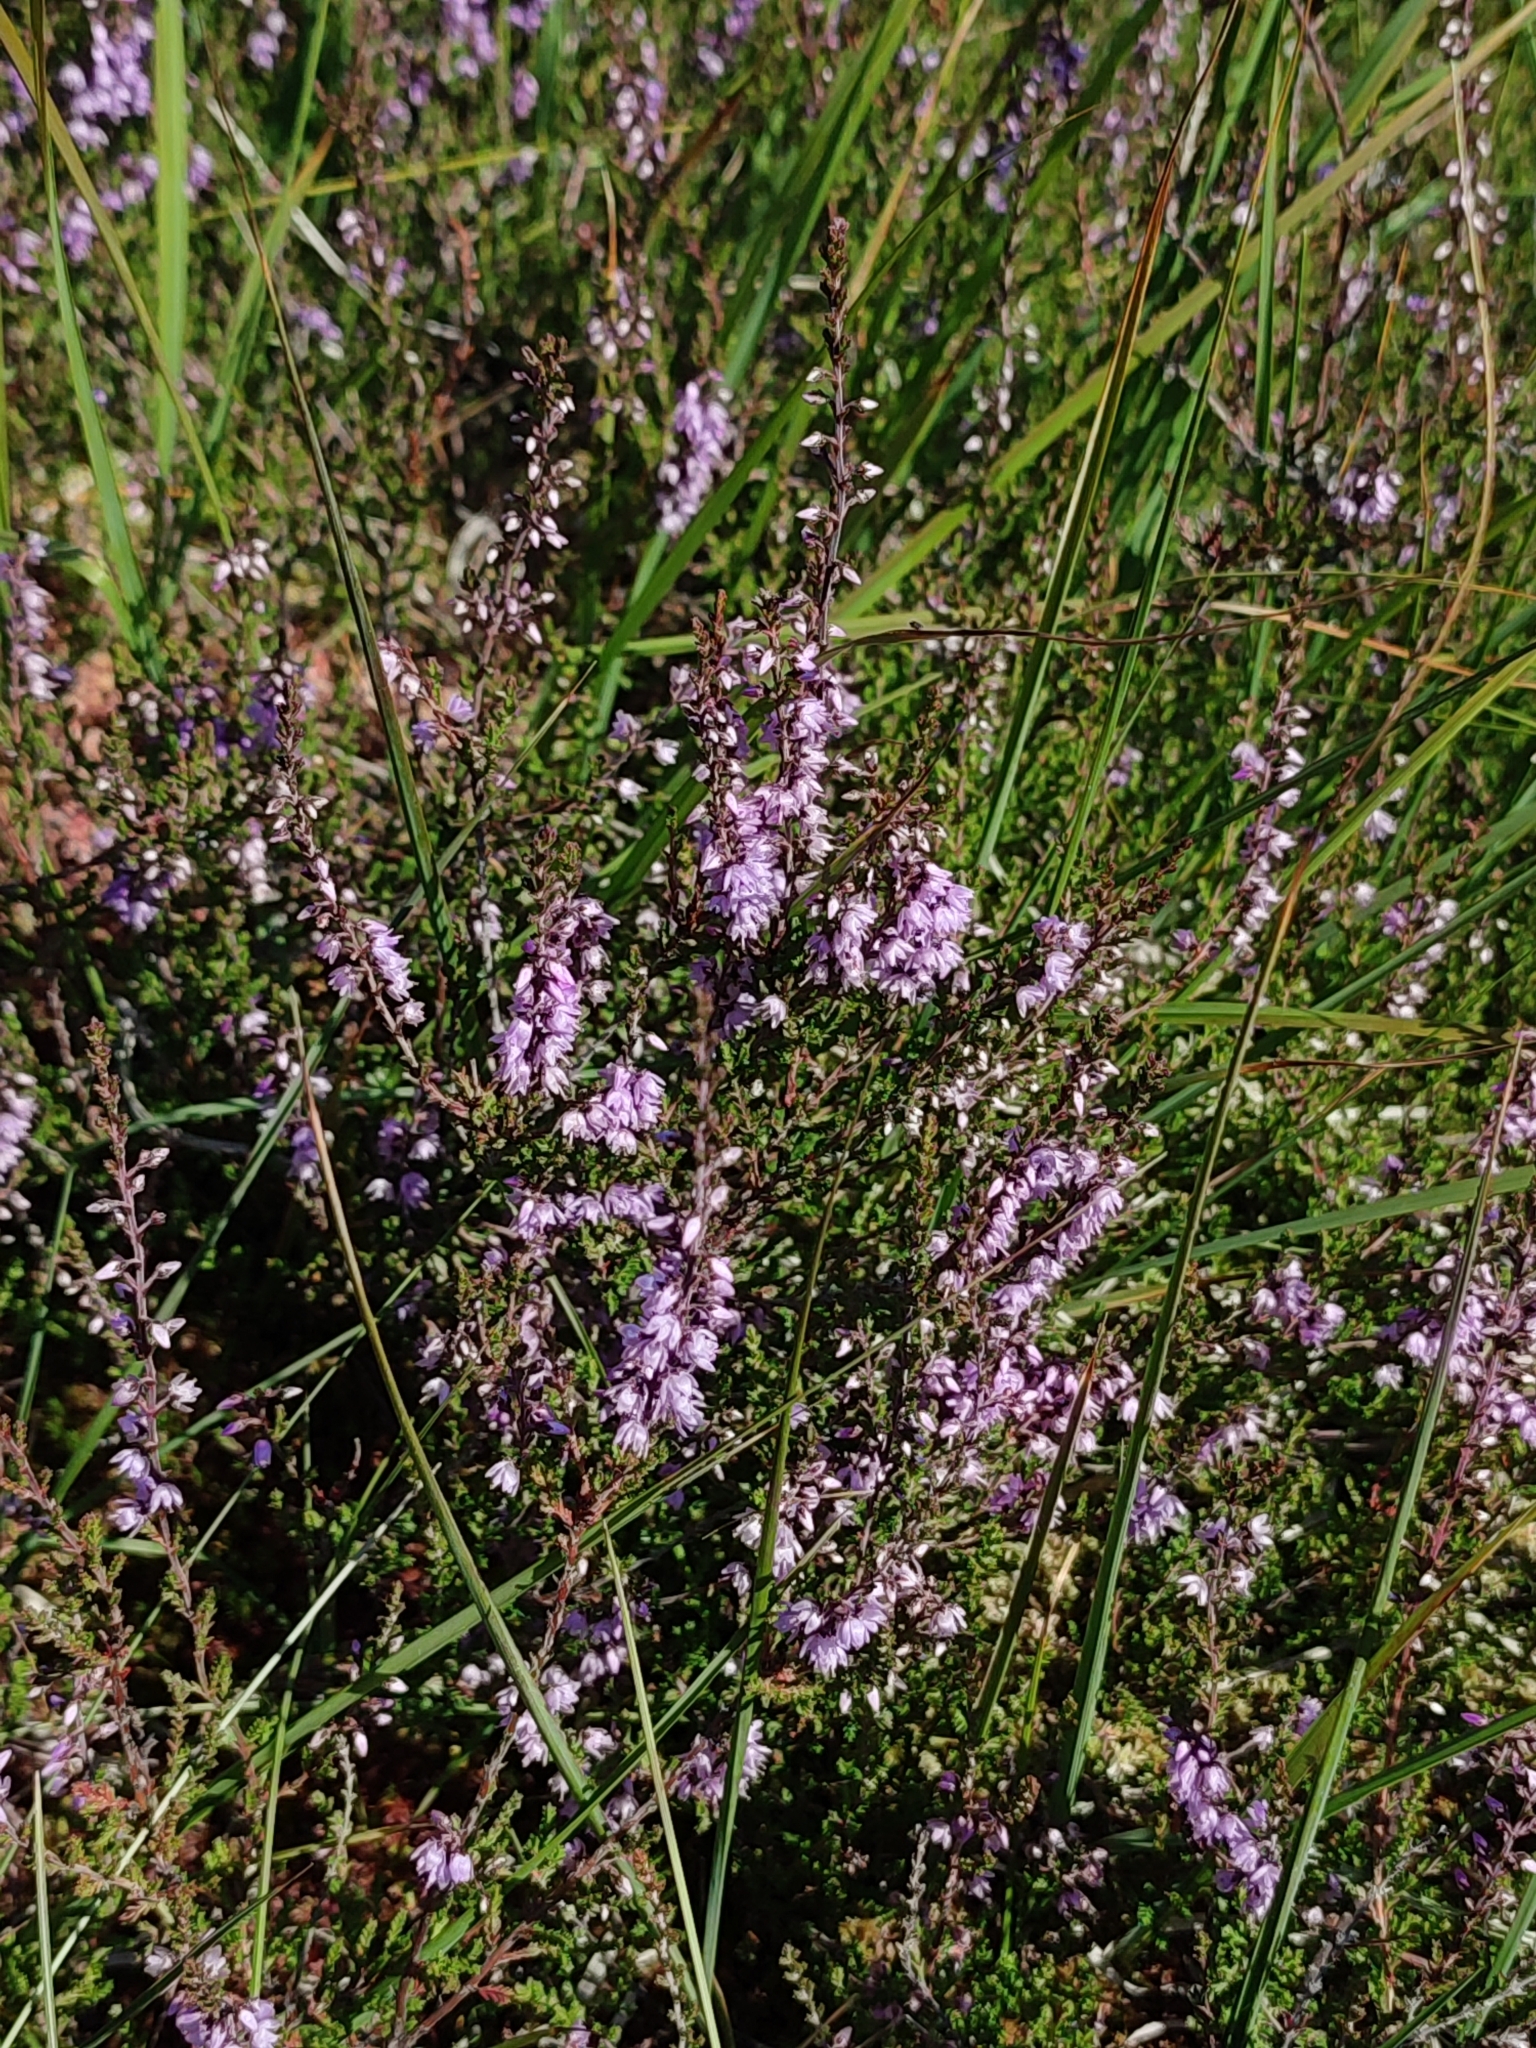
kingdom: Plantae
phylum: Tracheophyta
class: Magnoliopsida
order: Ericales
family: Ericaceae
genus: Calluna
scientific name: Calluna vulgaris
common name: Heather
